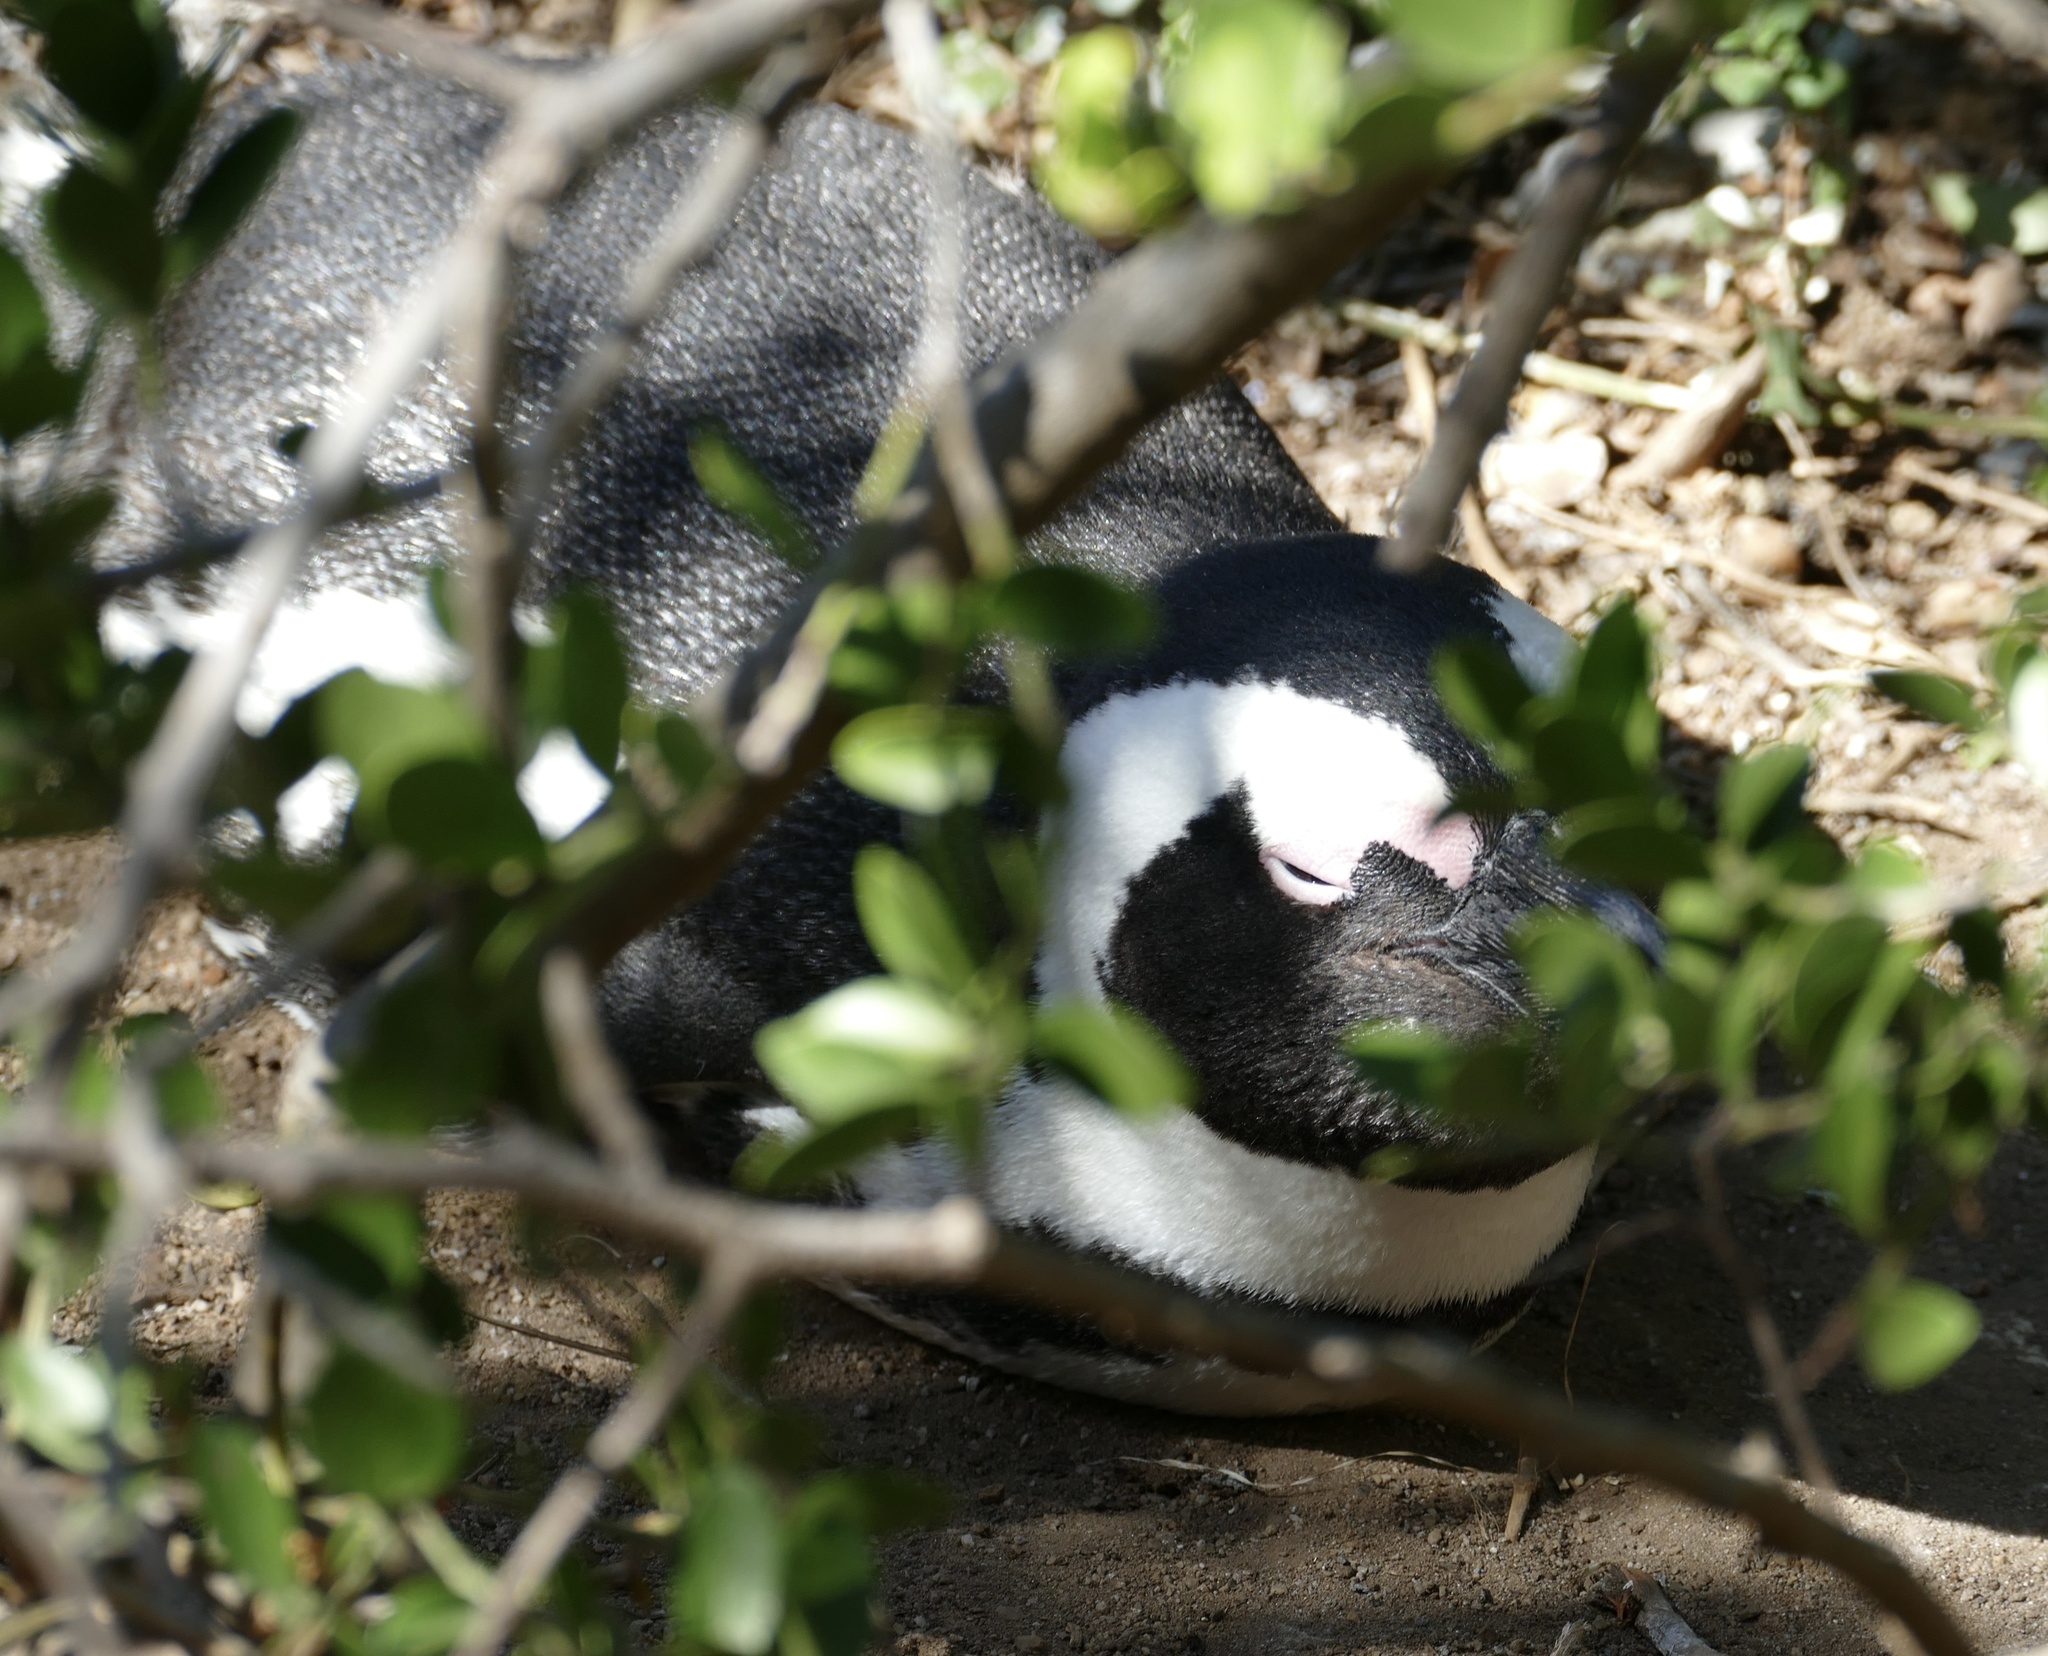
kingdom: Animalia
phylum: Chordata
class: Aves
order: Sphenisciformes
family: Spheniscidae
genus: Spheniscus
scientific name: Spheniscus demersus
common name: African penguin
